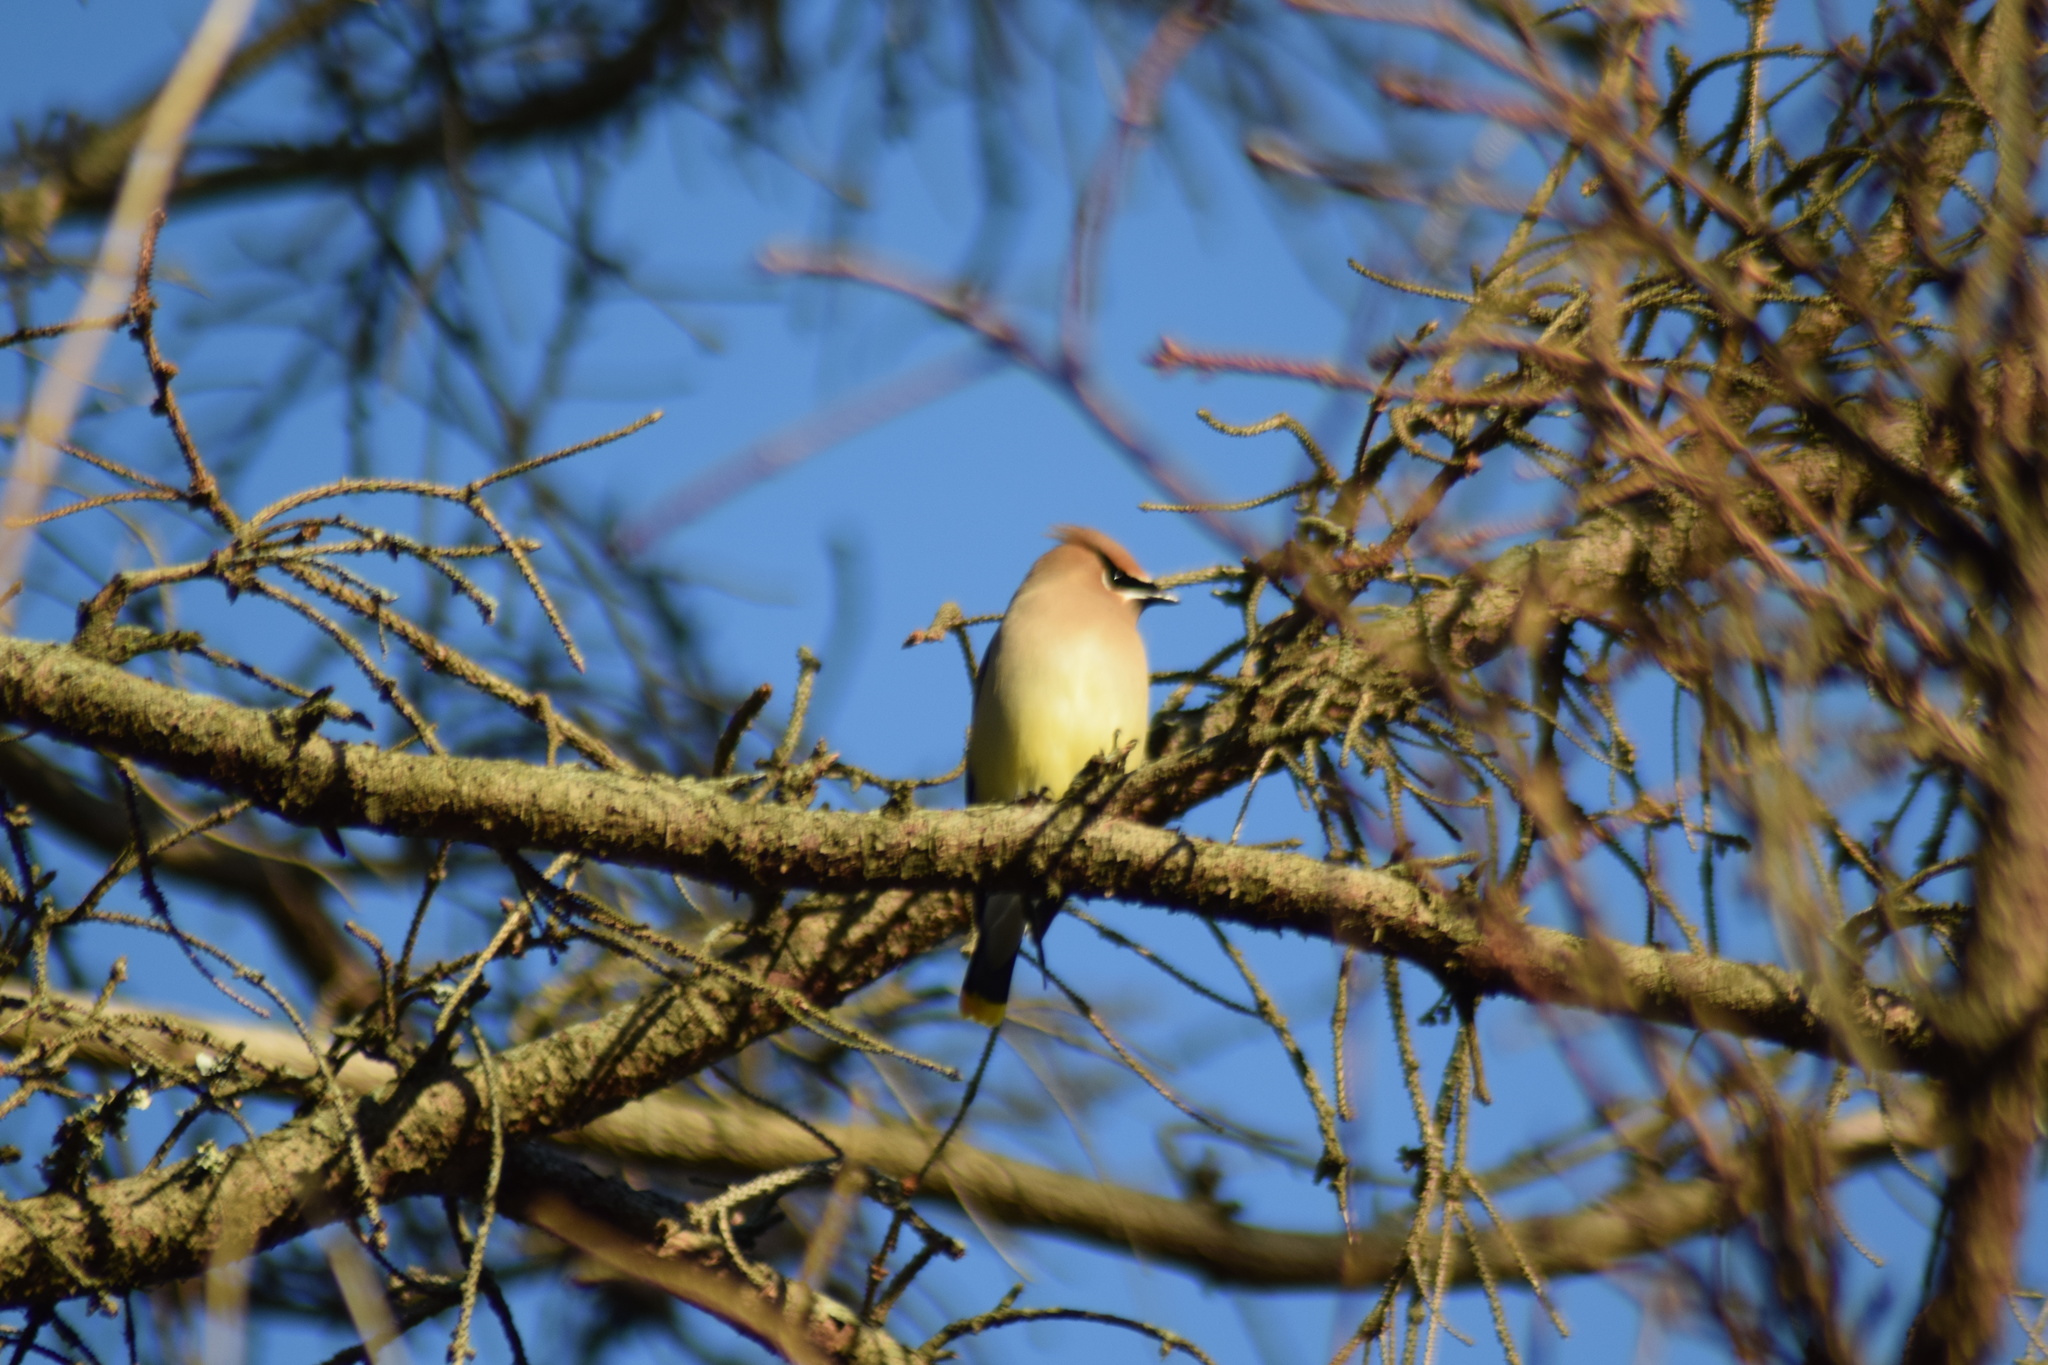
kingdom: Animalia
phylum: Chordata
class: Aves
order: Passeriformes
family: Bombycillidae
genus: Bombycilla
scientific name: Bombycilla cedrorum
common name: Cedar waxwing
